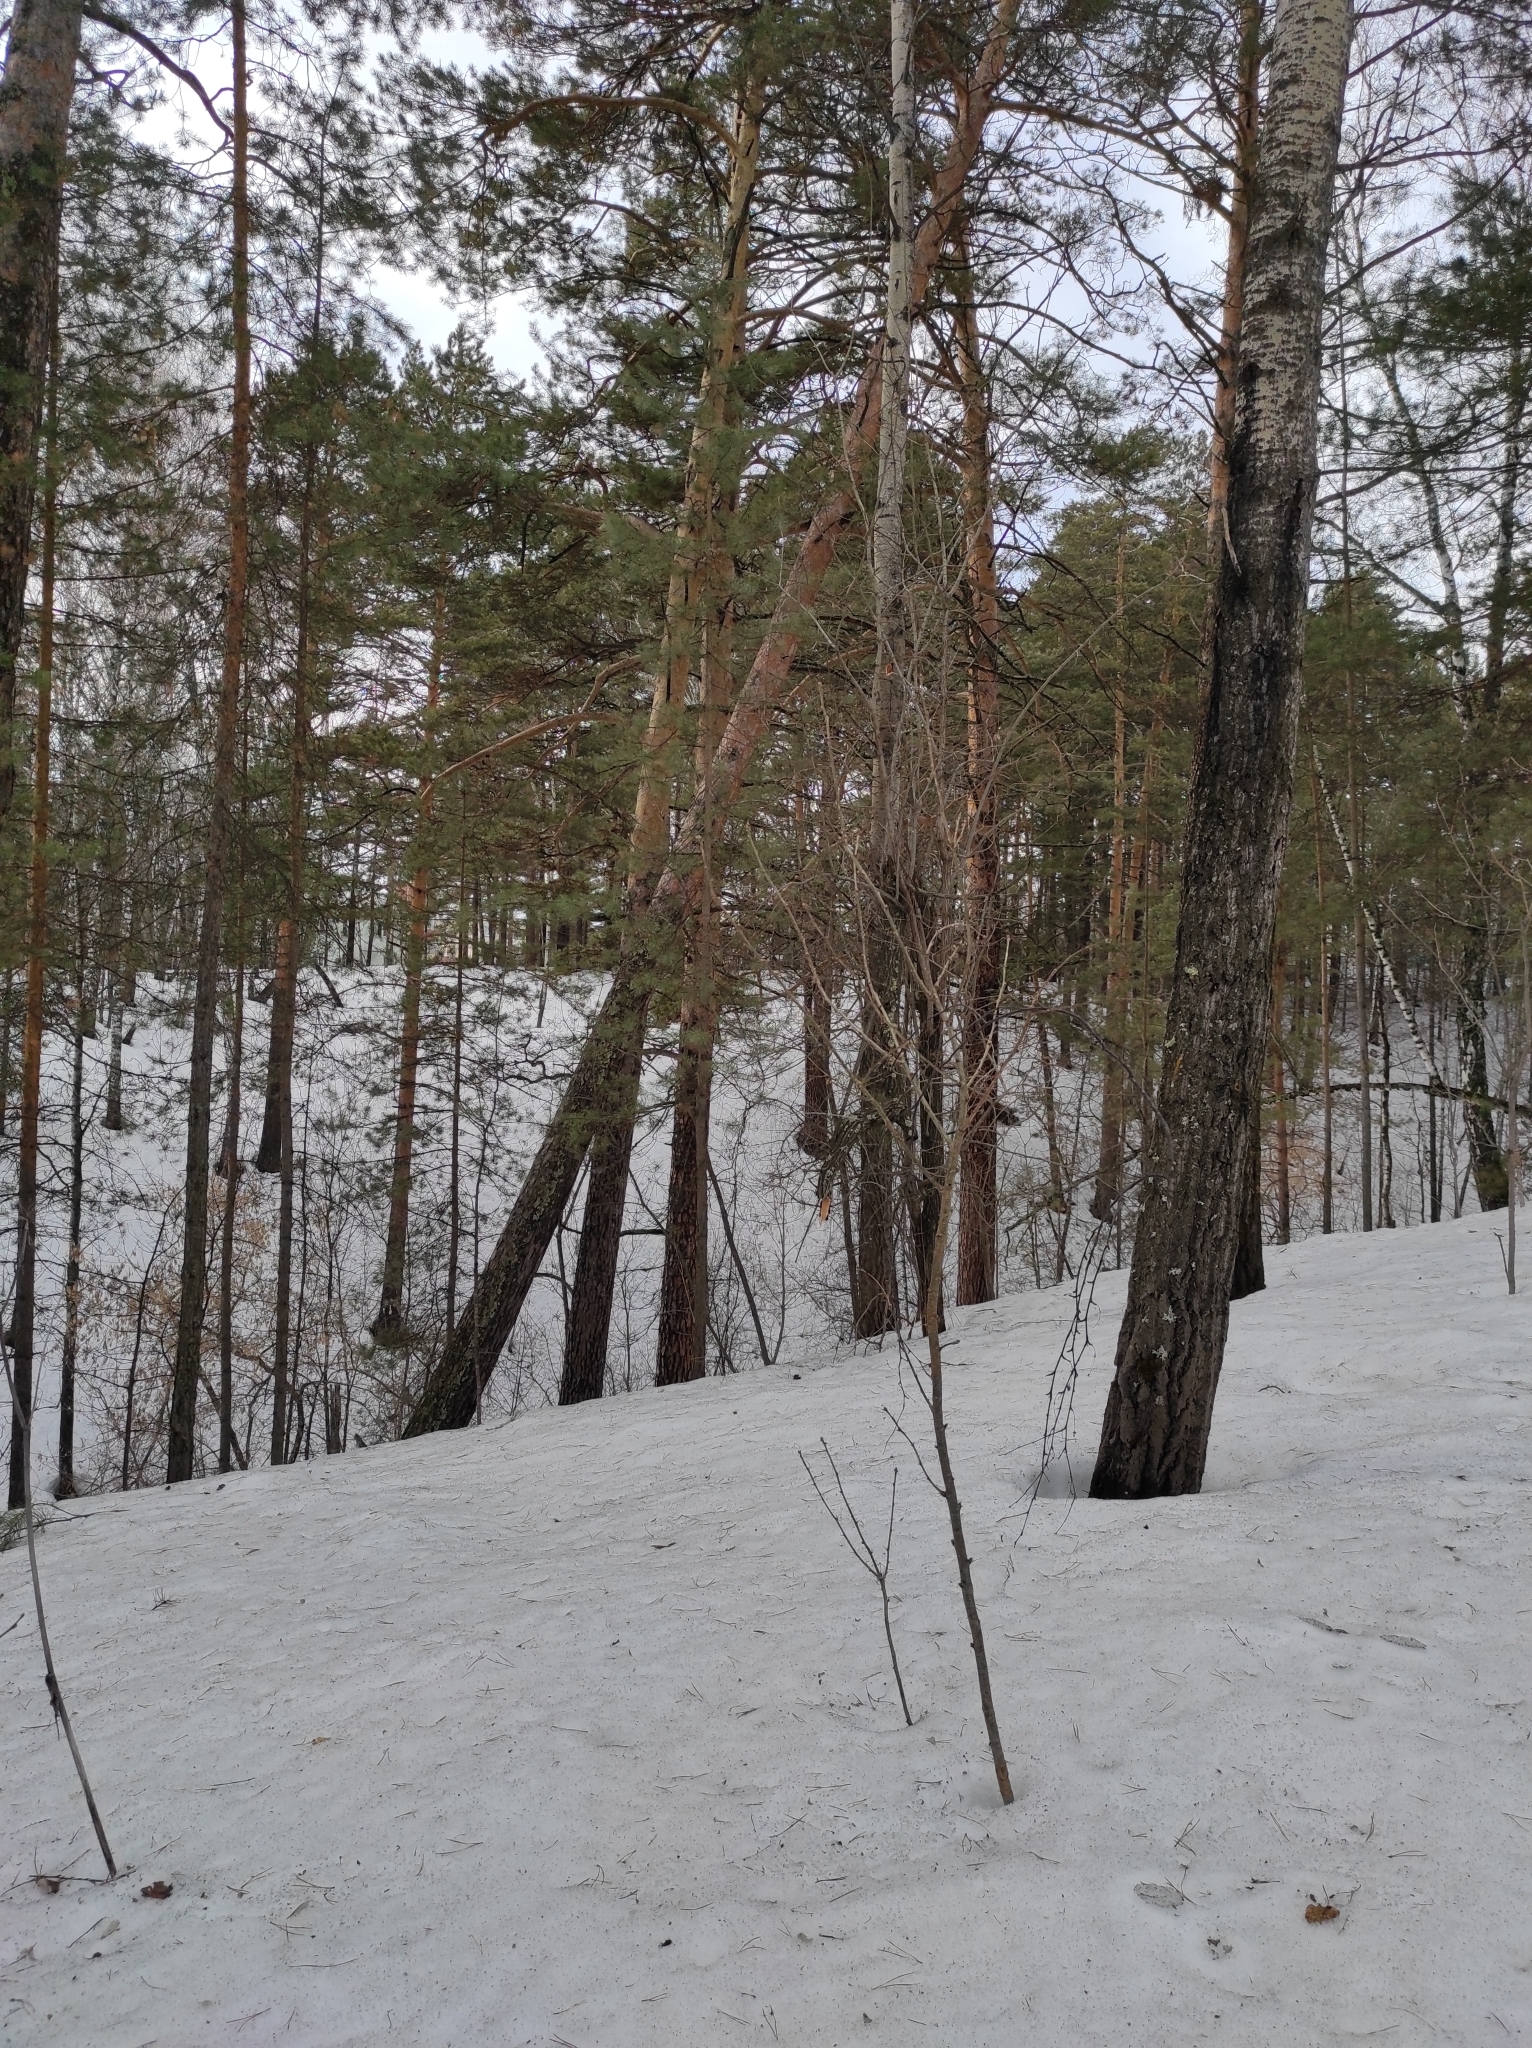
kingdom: Plantae
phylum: Tracheophyta
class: Magnoliopsida
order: Malpighiales
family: Salicaceae
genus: Populus
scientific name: Populus tremula
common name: European aspen
